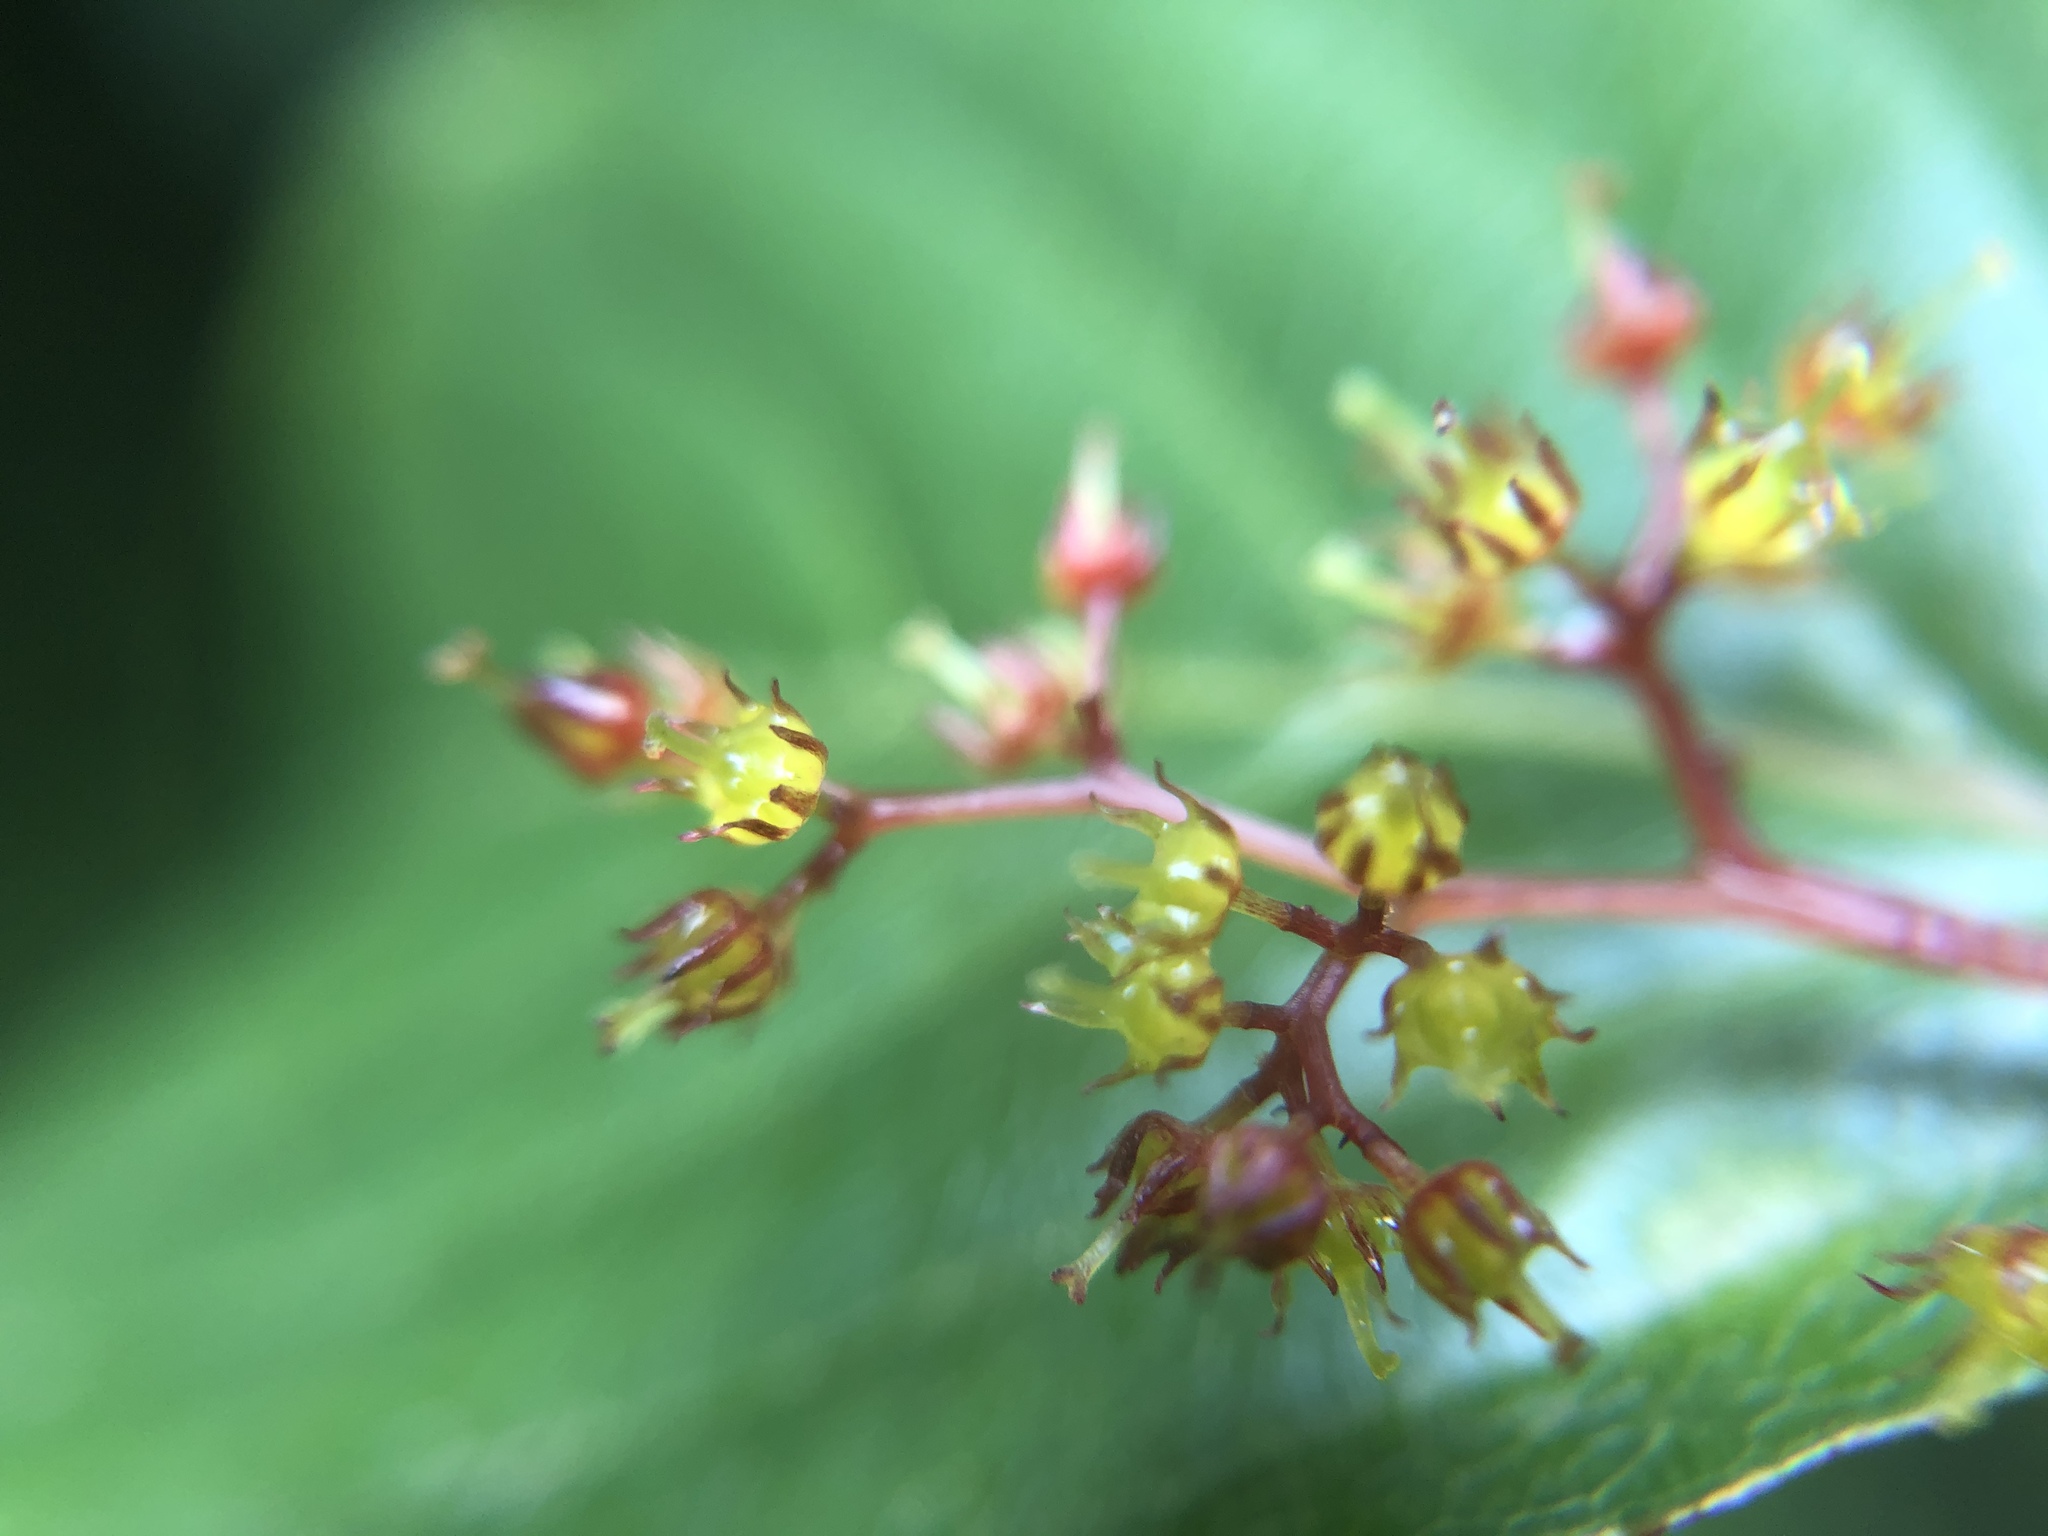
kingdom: Plantae
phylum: Tracheophyta
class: Magnoliopsida
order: Huerteales
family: Dipentodontaceae
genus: Perrottetia
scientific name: Perrottetia arisanensis
